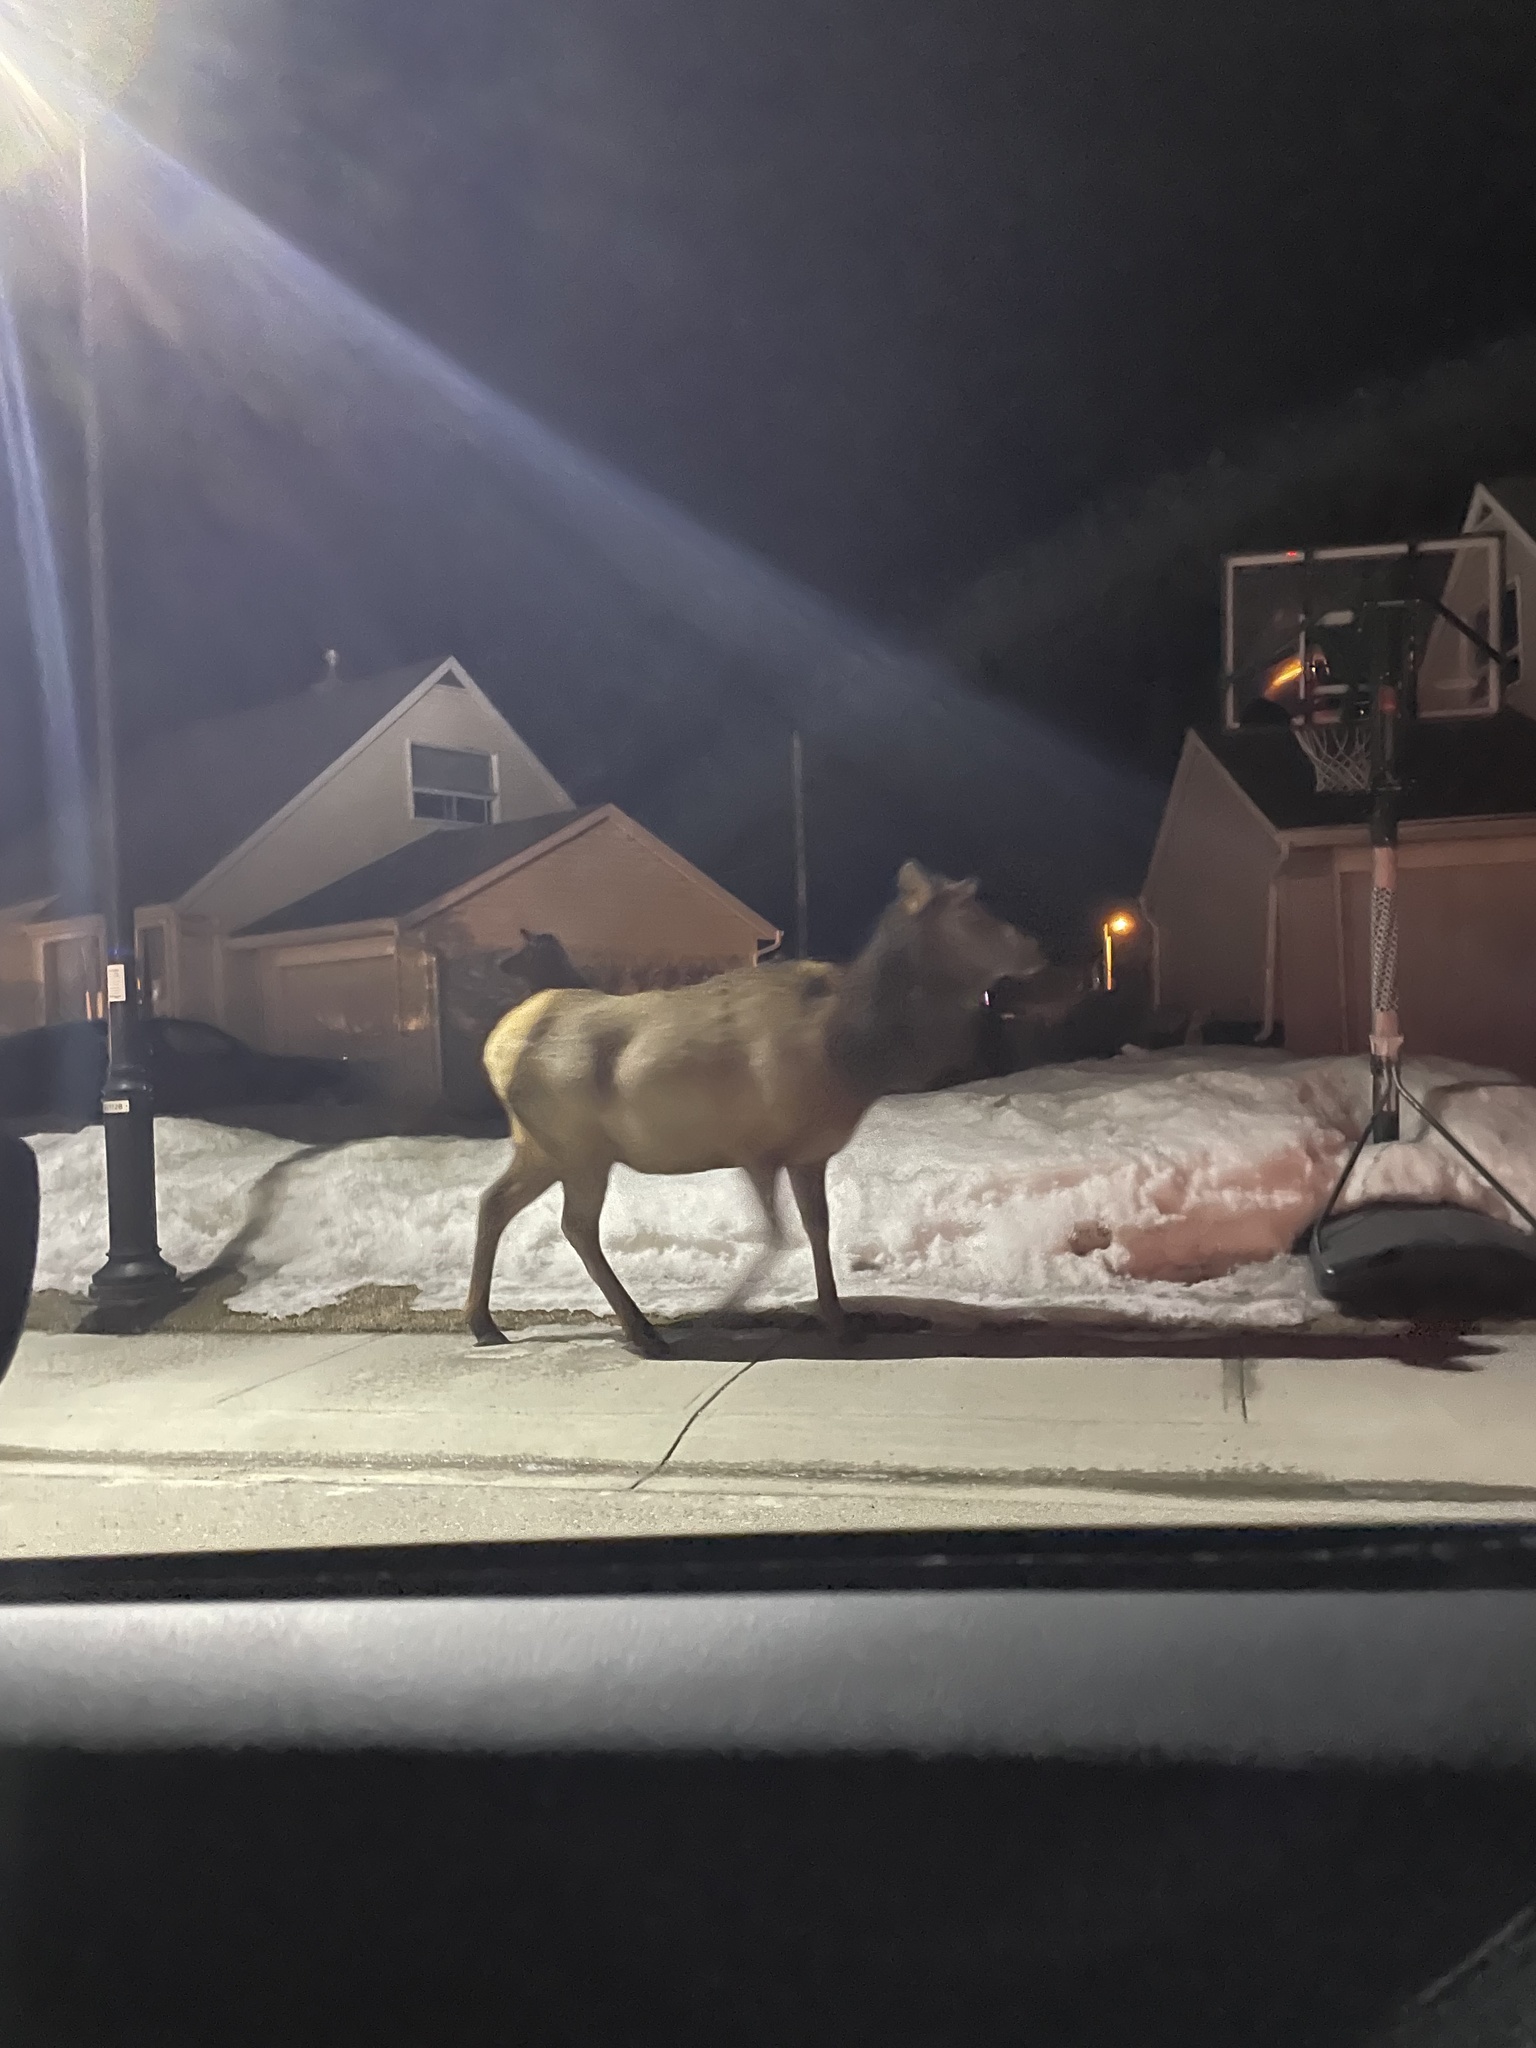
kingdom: Animalia
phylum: Chordata
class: Mammalia
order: Artiodactyla
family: Cervidae
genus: Cervus
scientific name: Cervus elaphus
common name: Red deer
